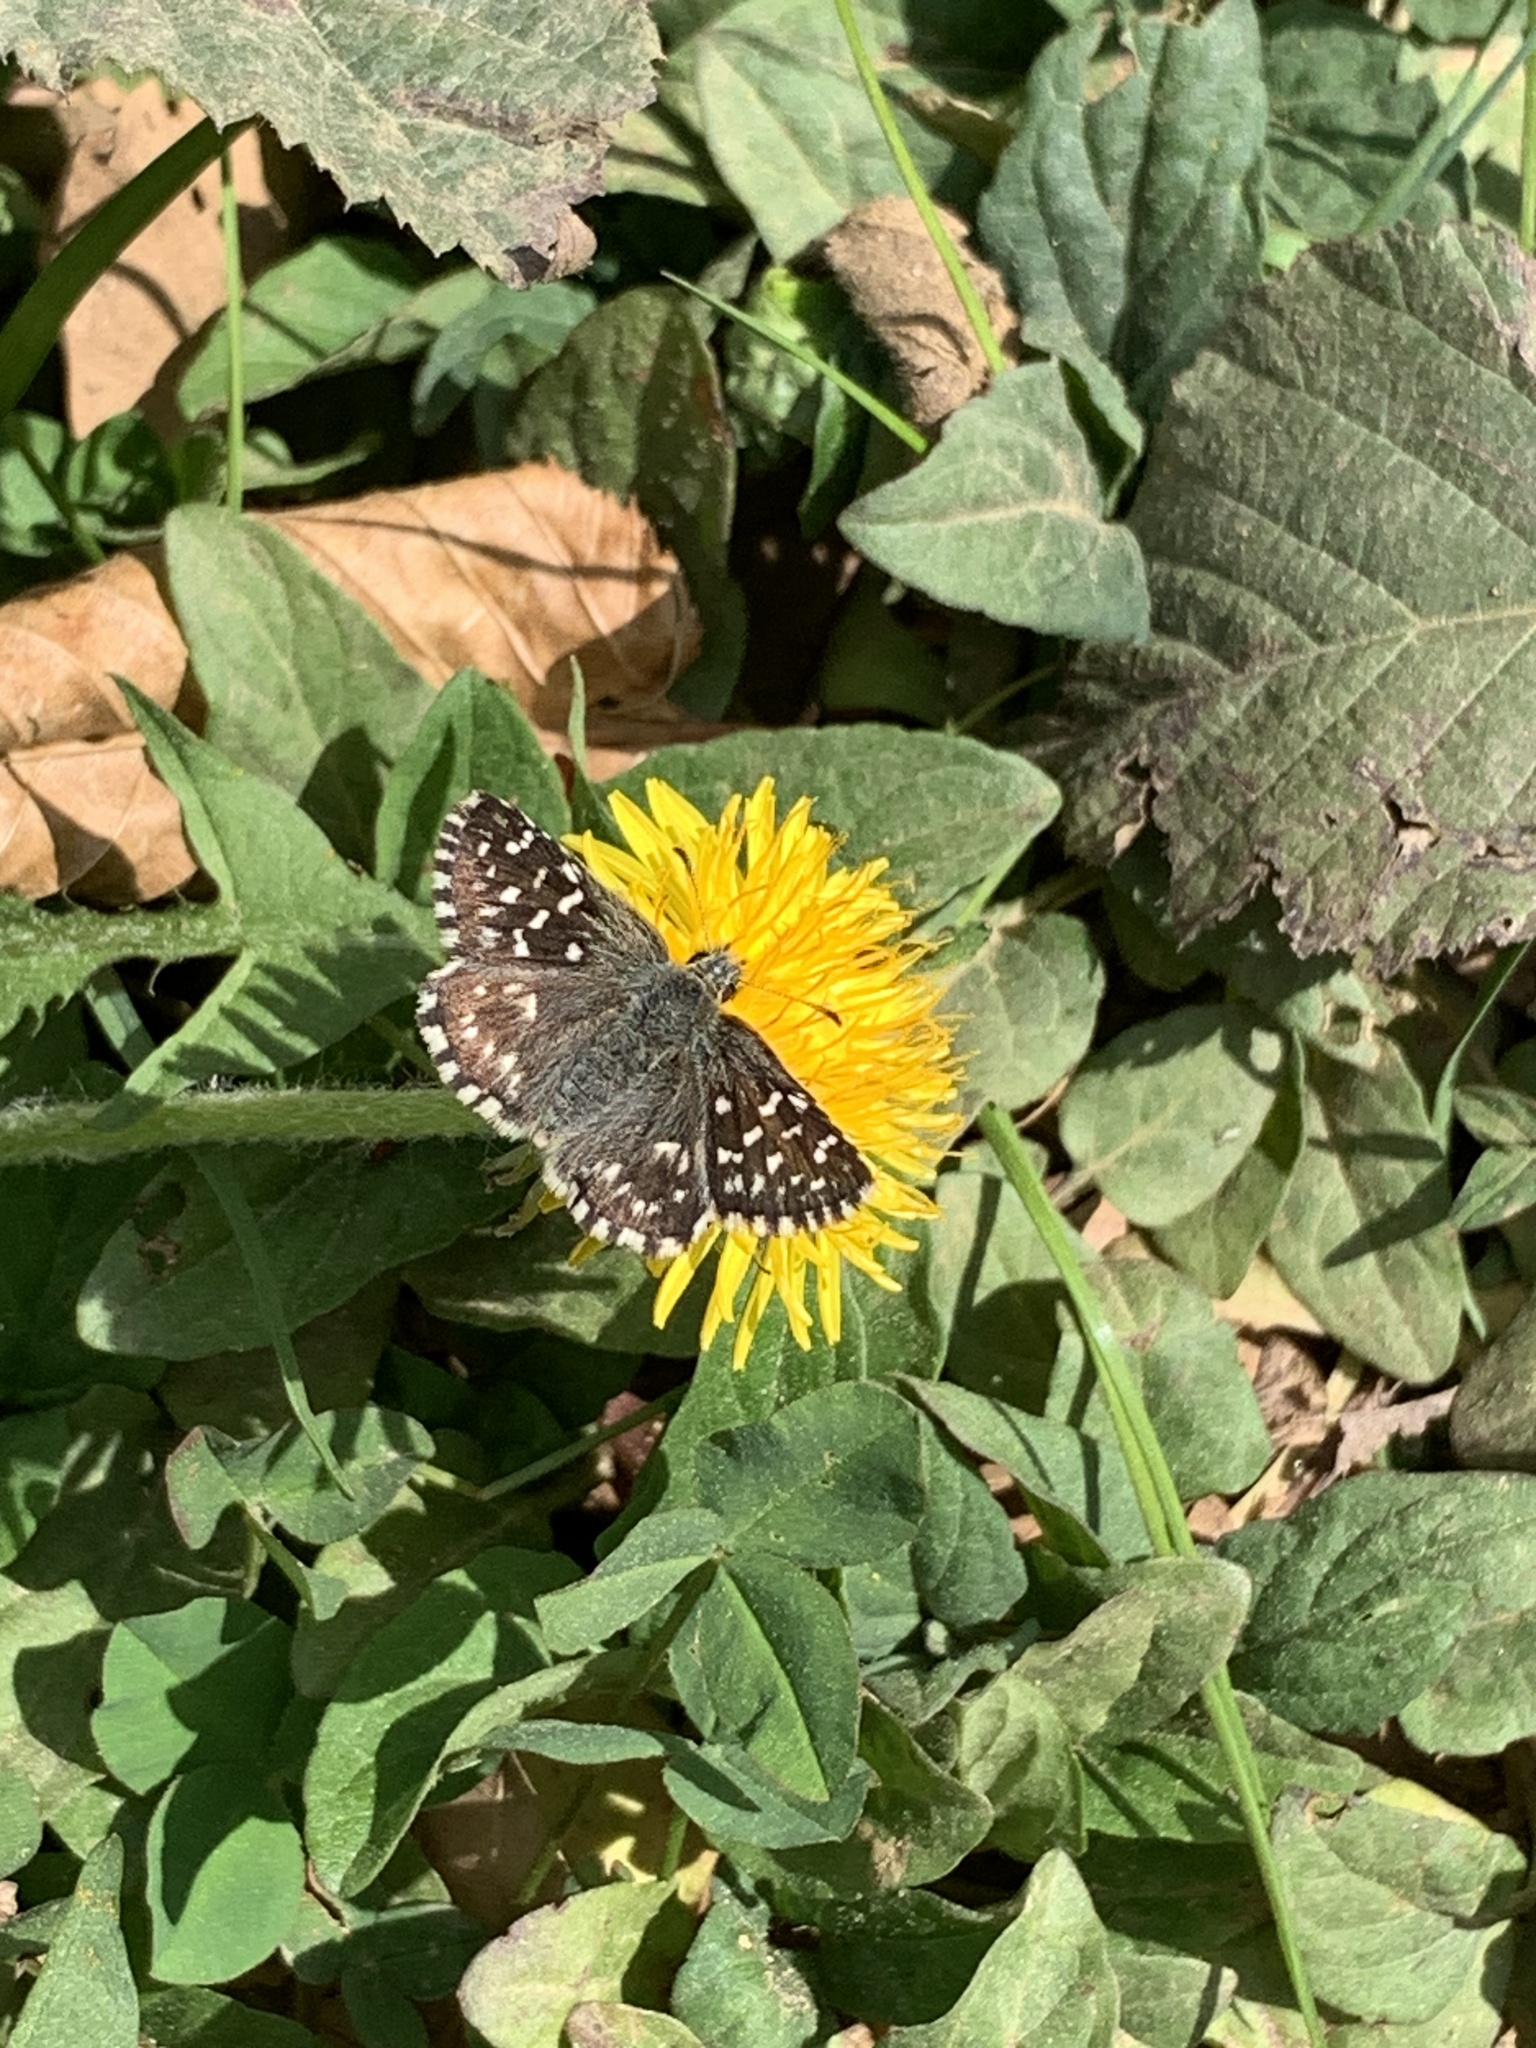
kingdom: Animalia
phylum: Arthropoda
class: Insecta
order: Lepidoptera
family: Hesperiidae
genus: Pyrgus
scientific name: Pyrgus malvae
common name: Grizzled skipper
